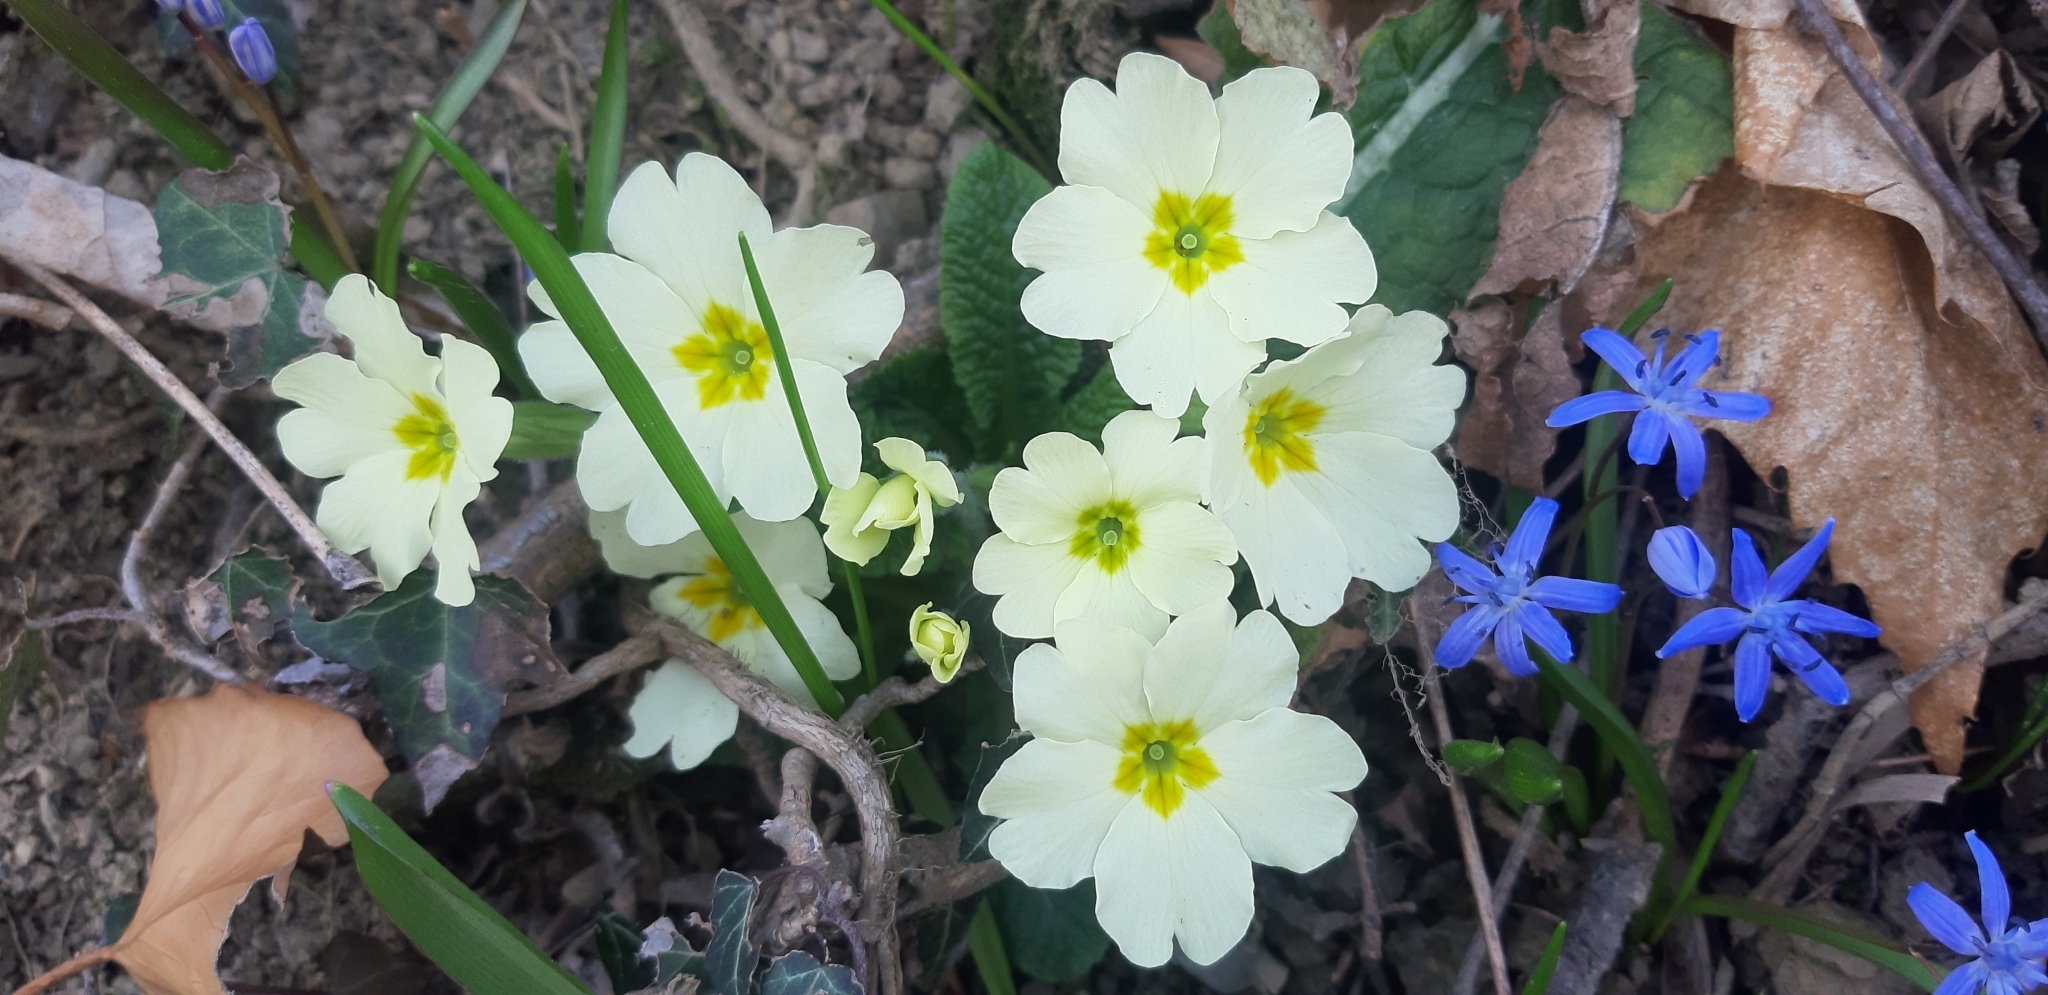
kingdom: Plantae
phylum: Tracheophyta
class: Magnoliopsida
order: Ericales
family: Primulaceae
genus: Primula
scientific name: Primula vulgaris
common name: Primrose
